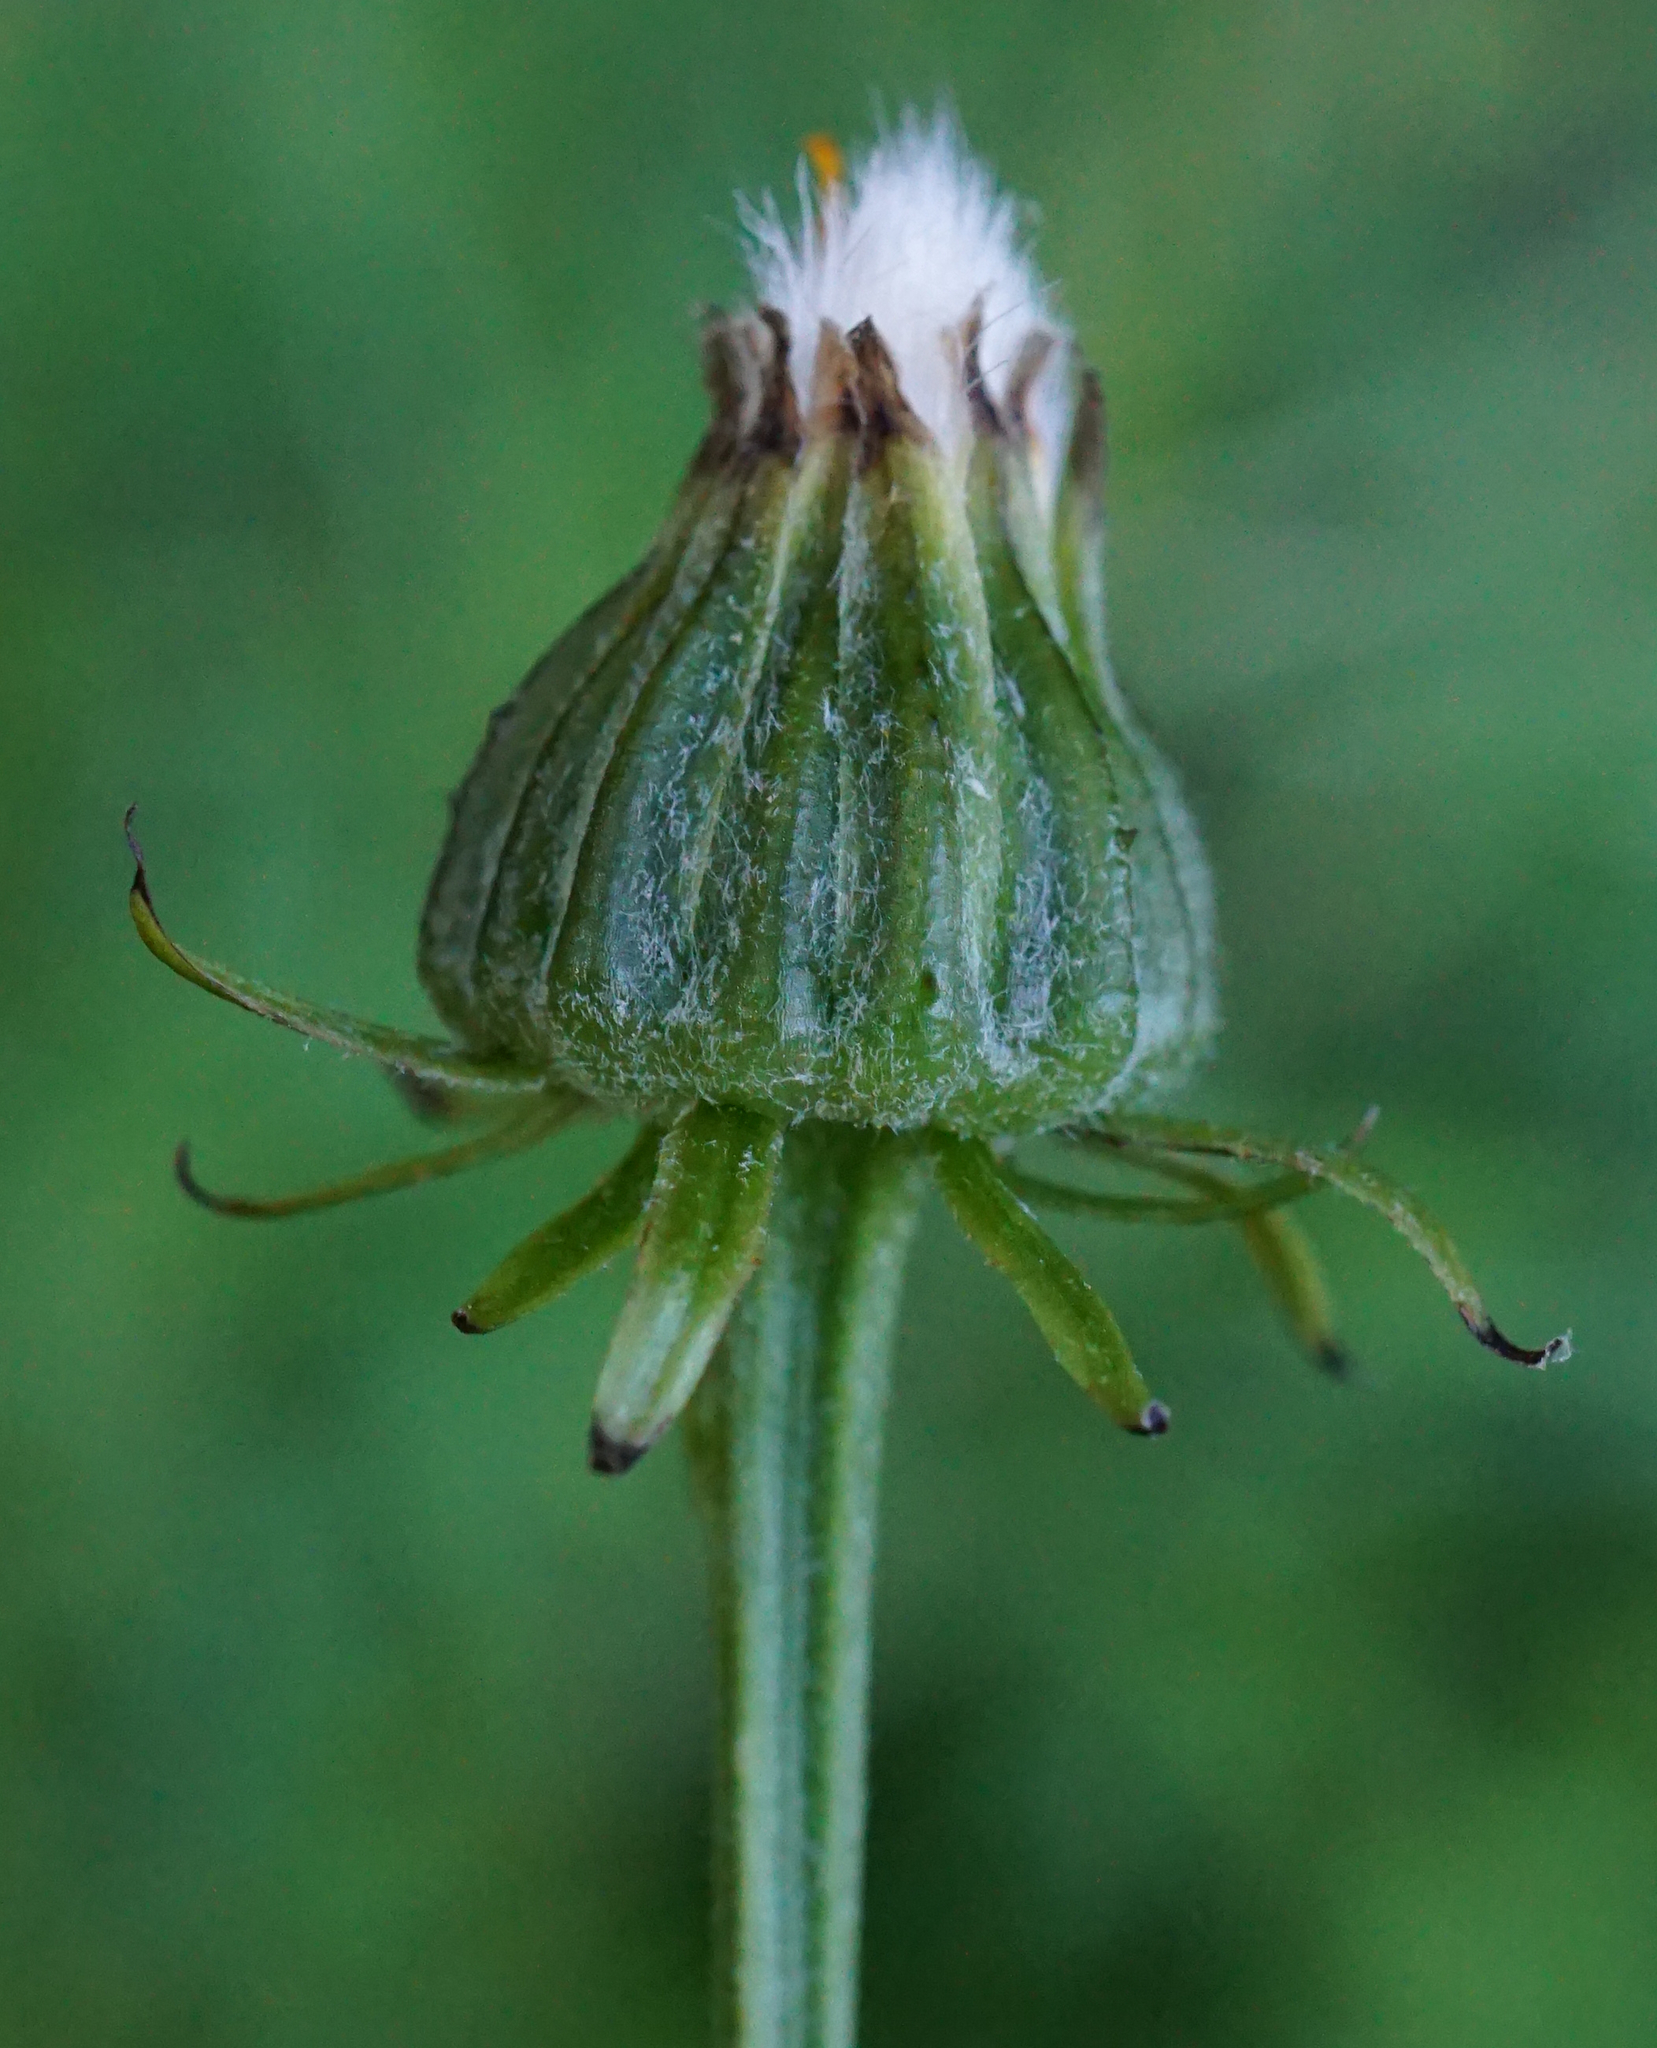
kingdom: Plantae
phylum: Tracheophyta
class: Magnoliopsida
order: Asterales
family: Asteraceae
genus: Crepis
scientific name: Crepis biennis
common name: Rough hawk's-beard
